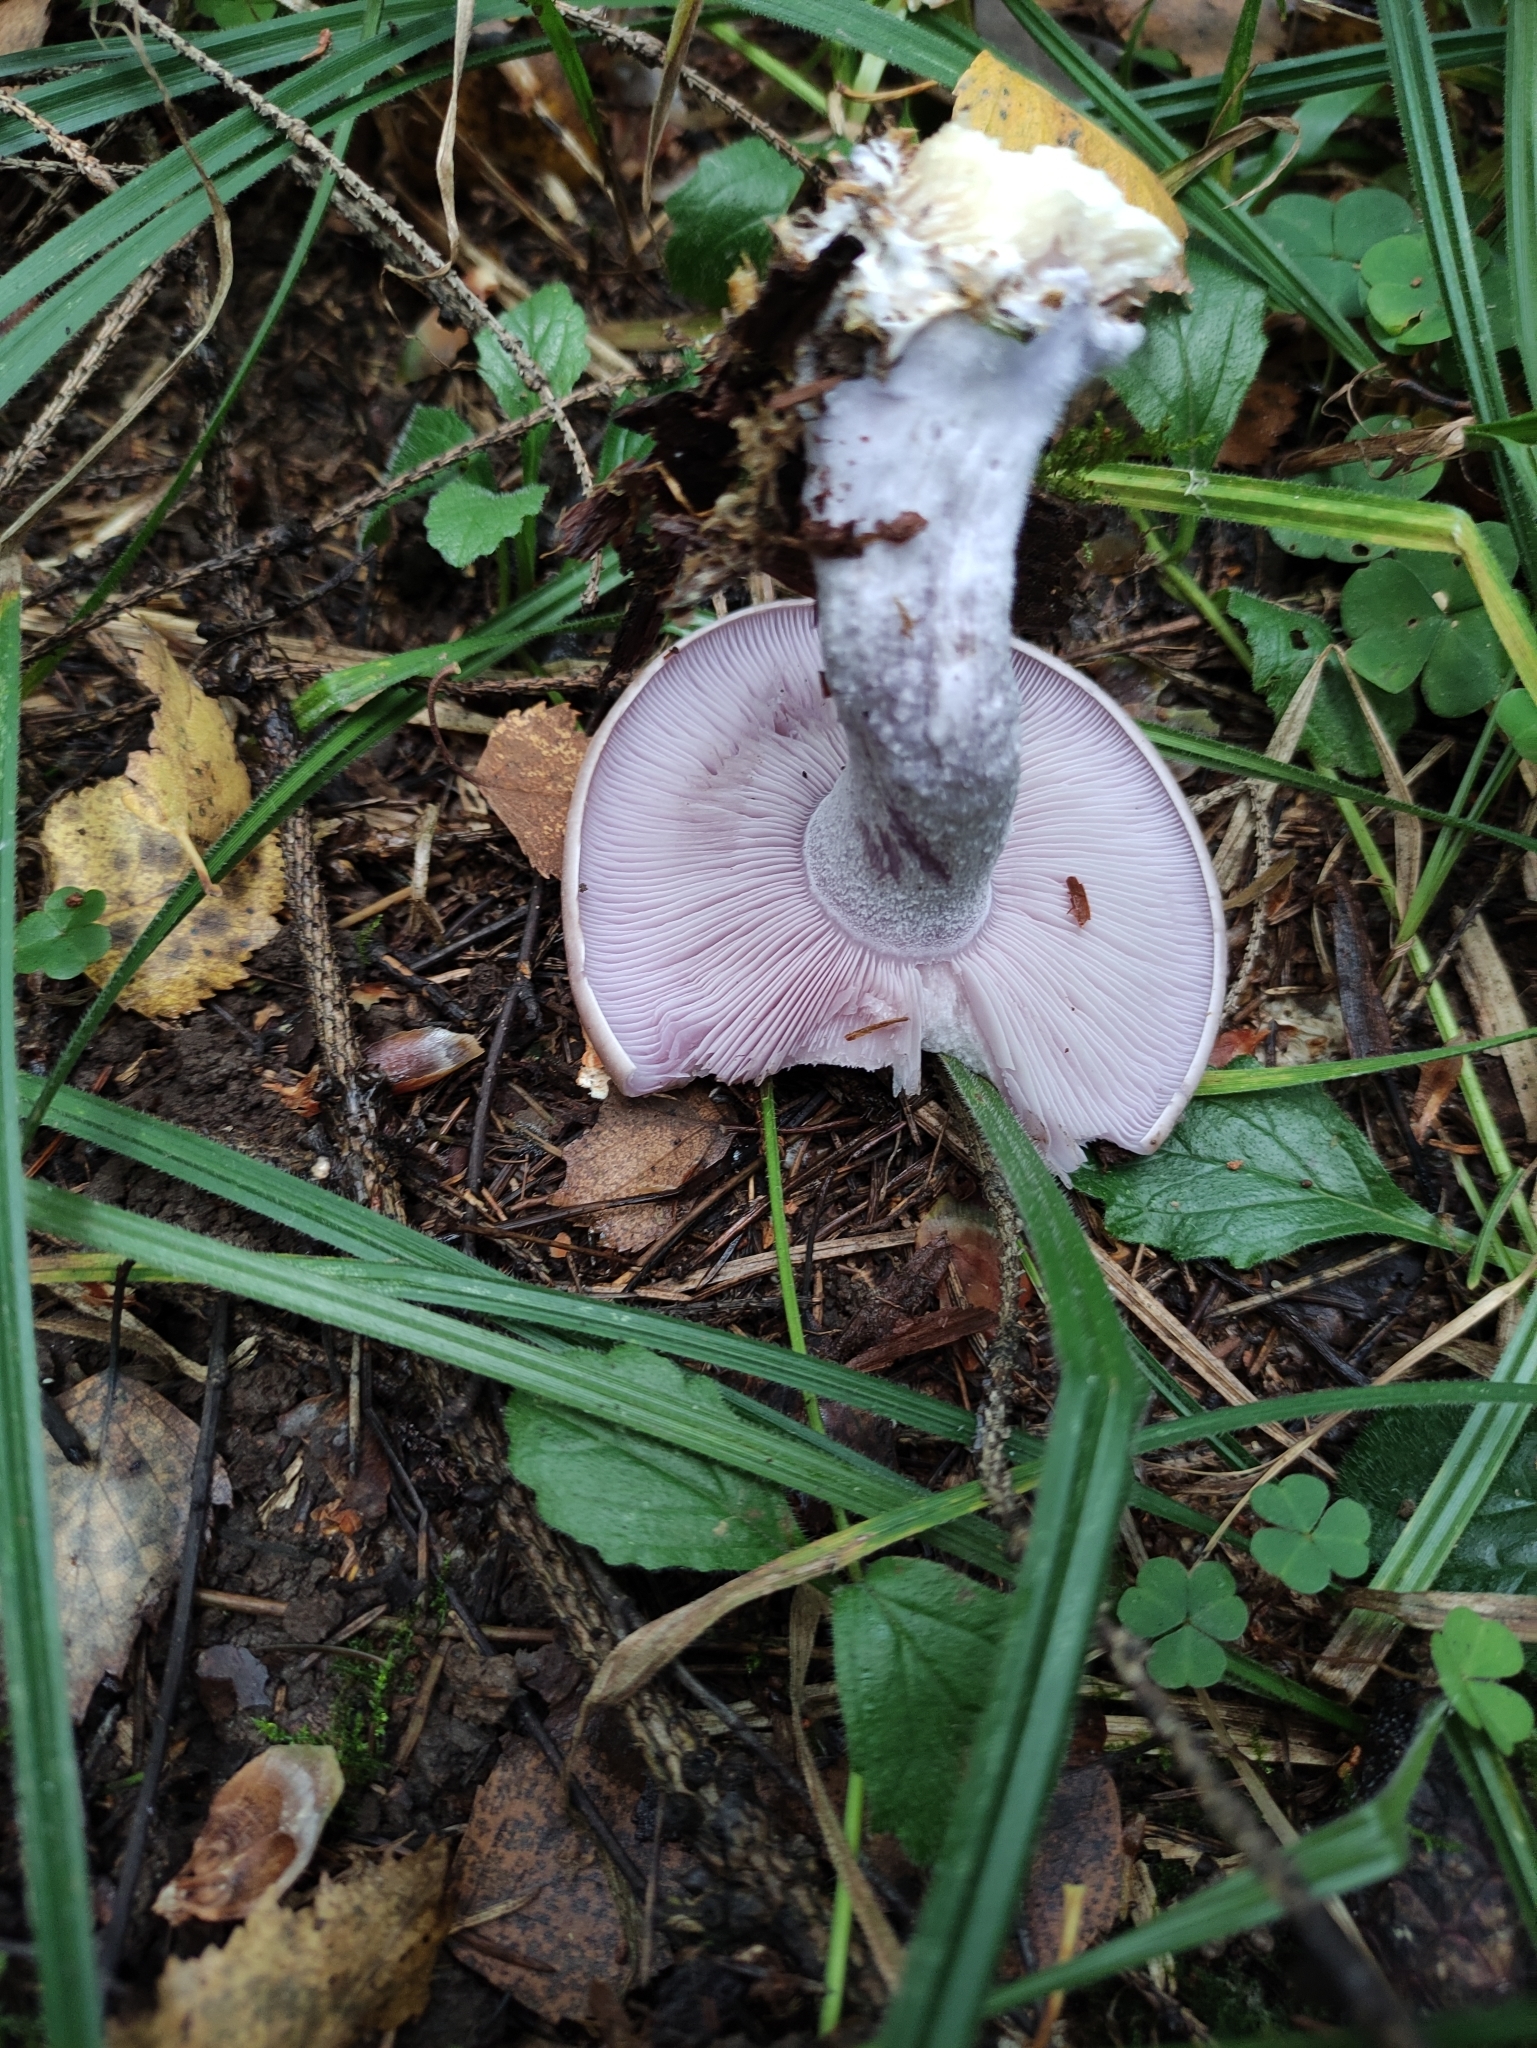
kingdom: Fungi
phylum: Basidiomycota
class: Agaricomycetes
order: Agaricales
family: Tricholomataceae
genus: Collybia
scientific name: Collybia
